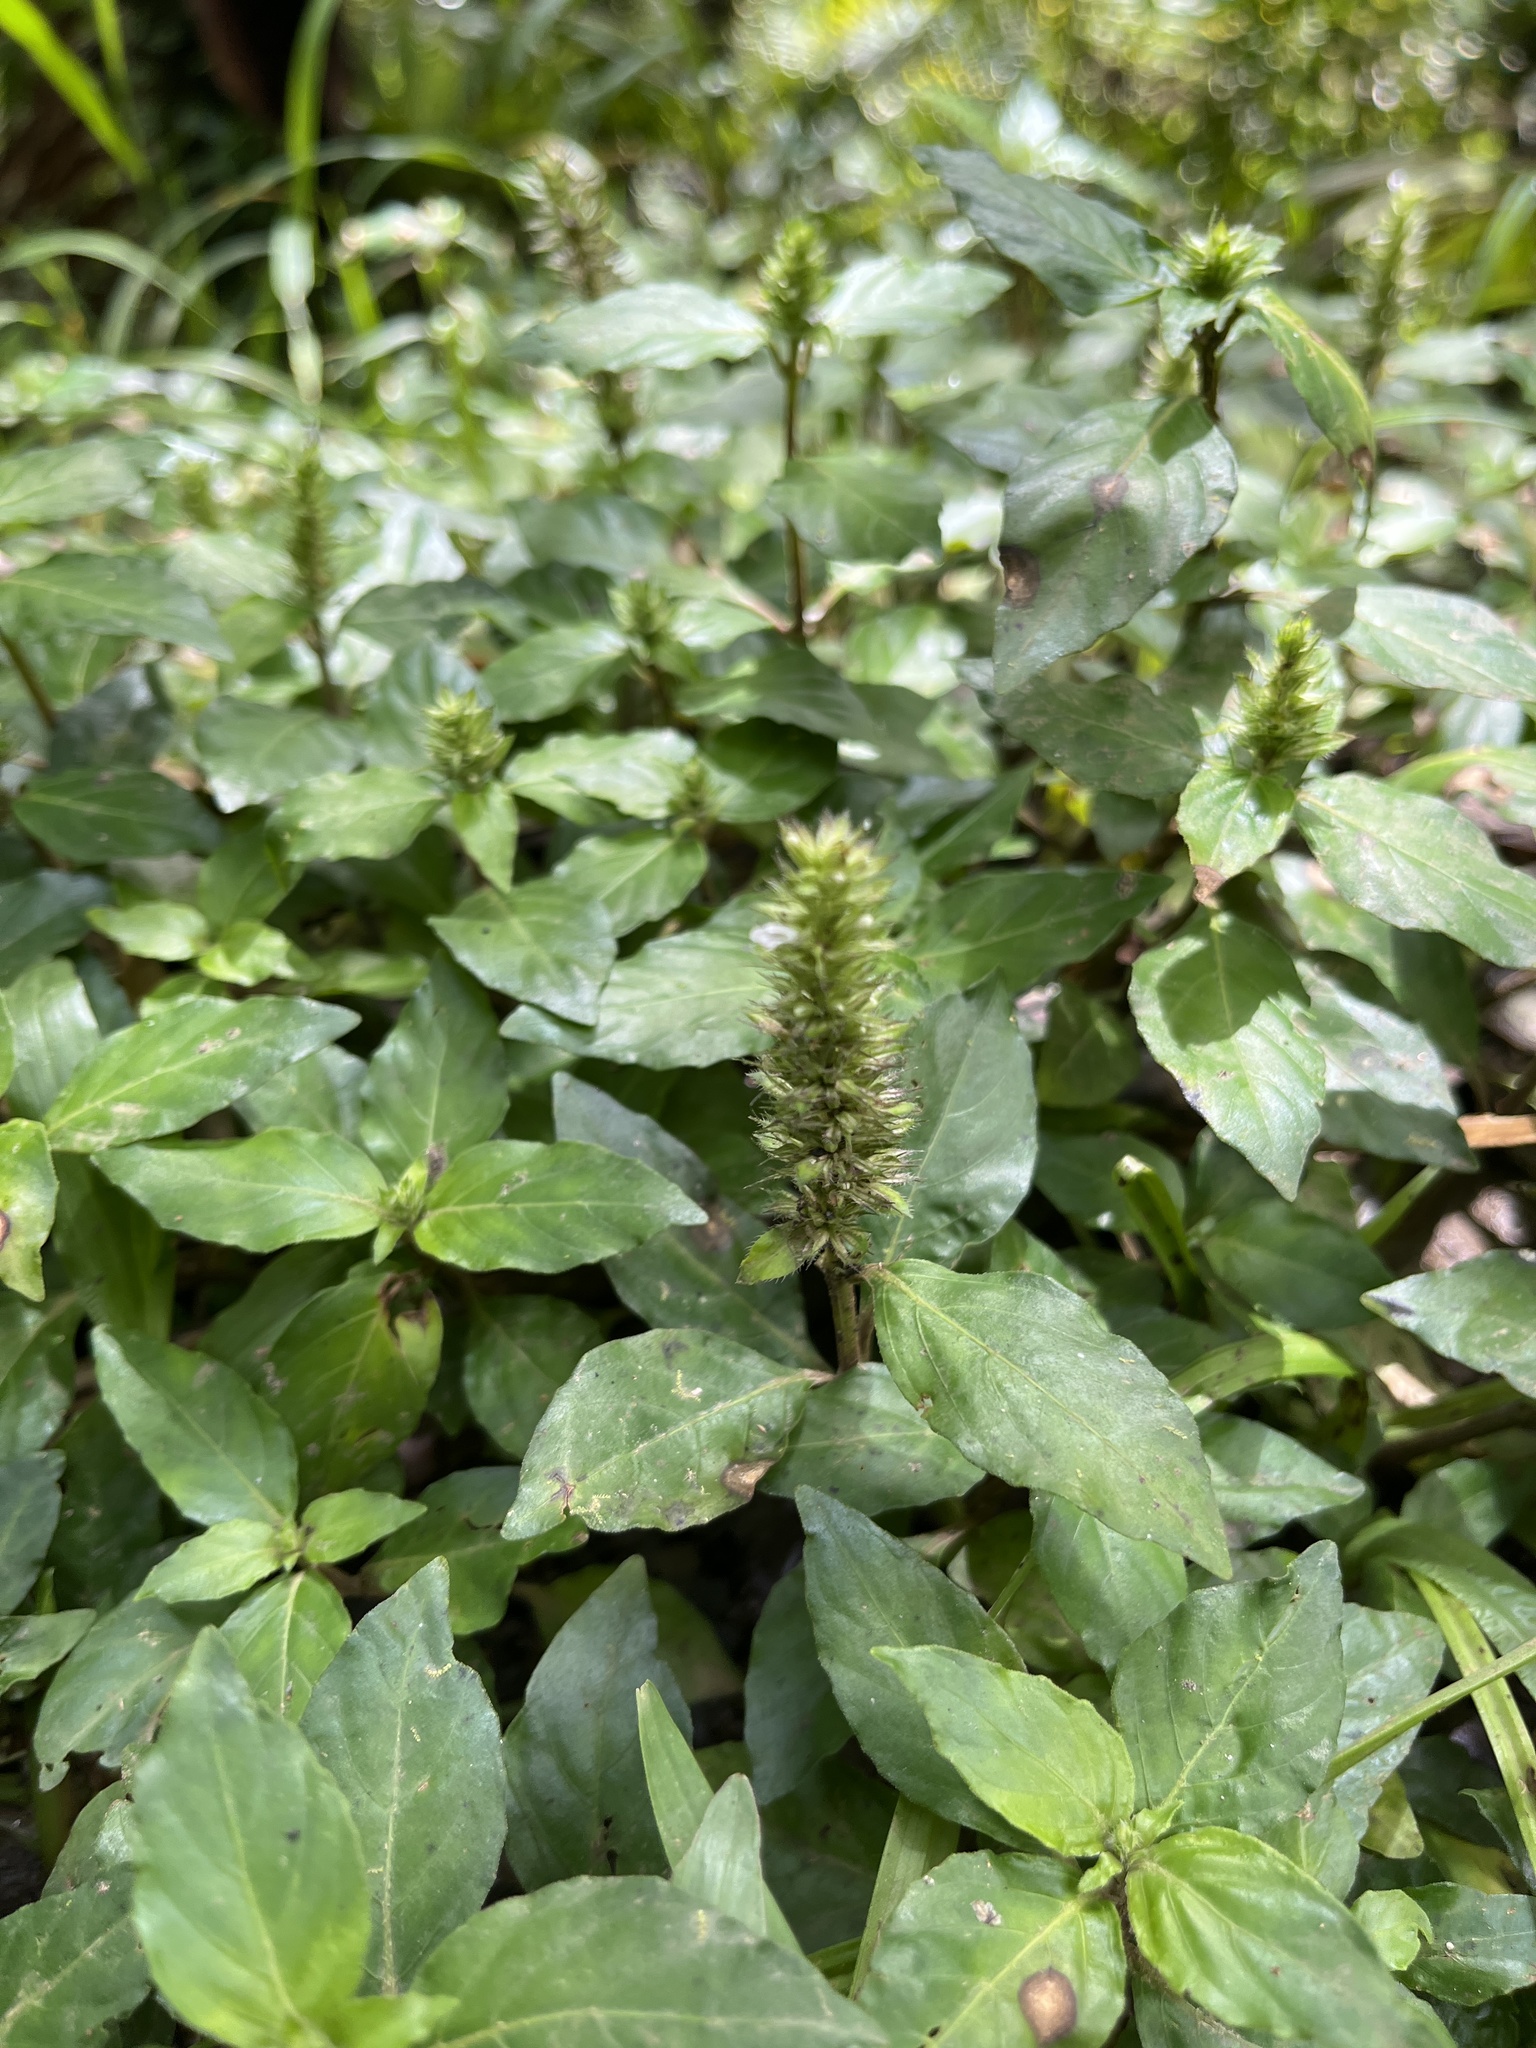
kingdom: Plantae
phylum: Tracheophyta
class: Magnoliopsida
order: Lamiales
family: Acanthaceae
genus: Lepidagathis
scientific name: Lepidagathis alopecuroidea
